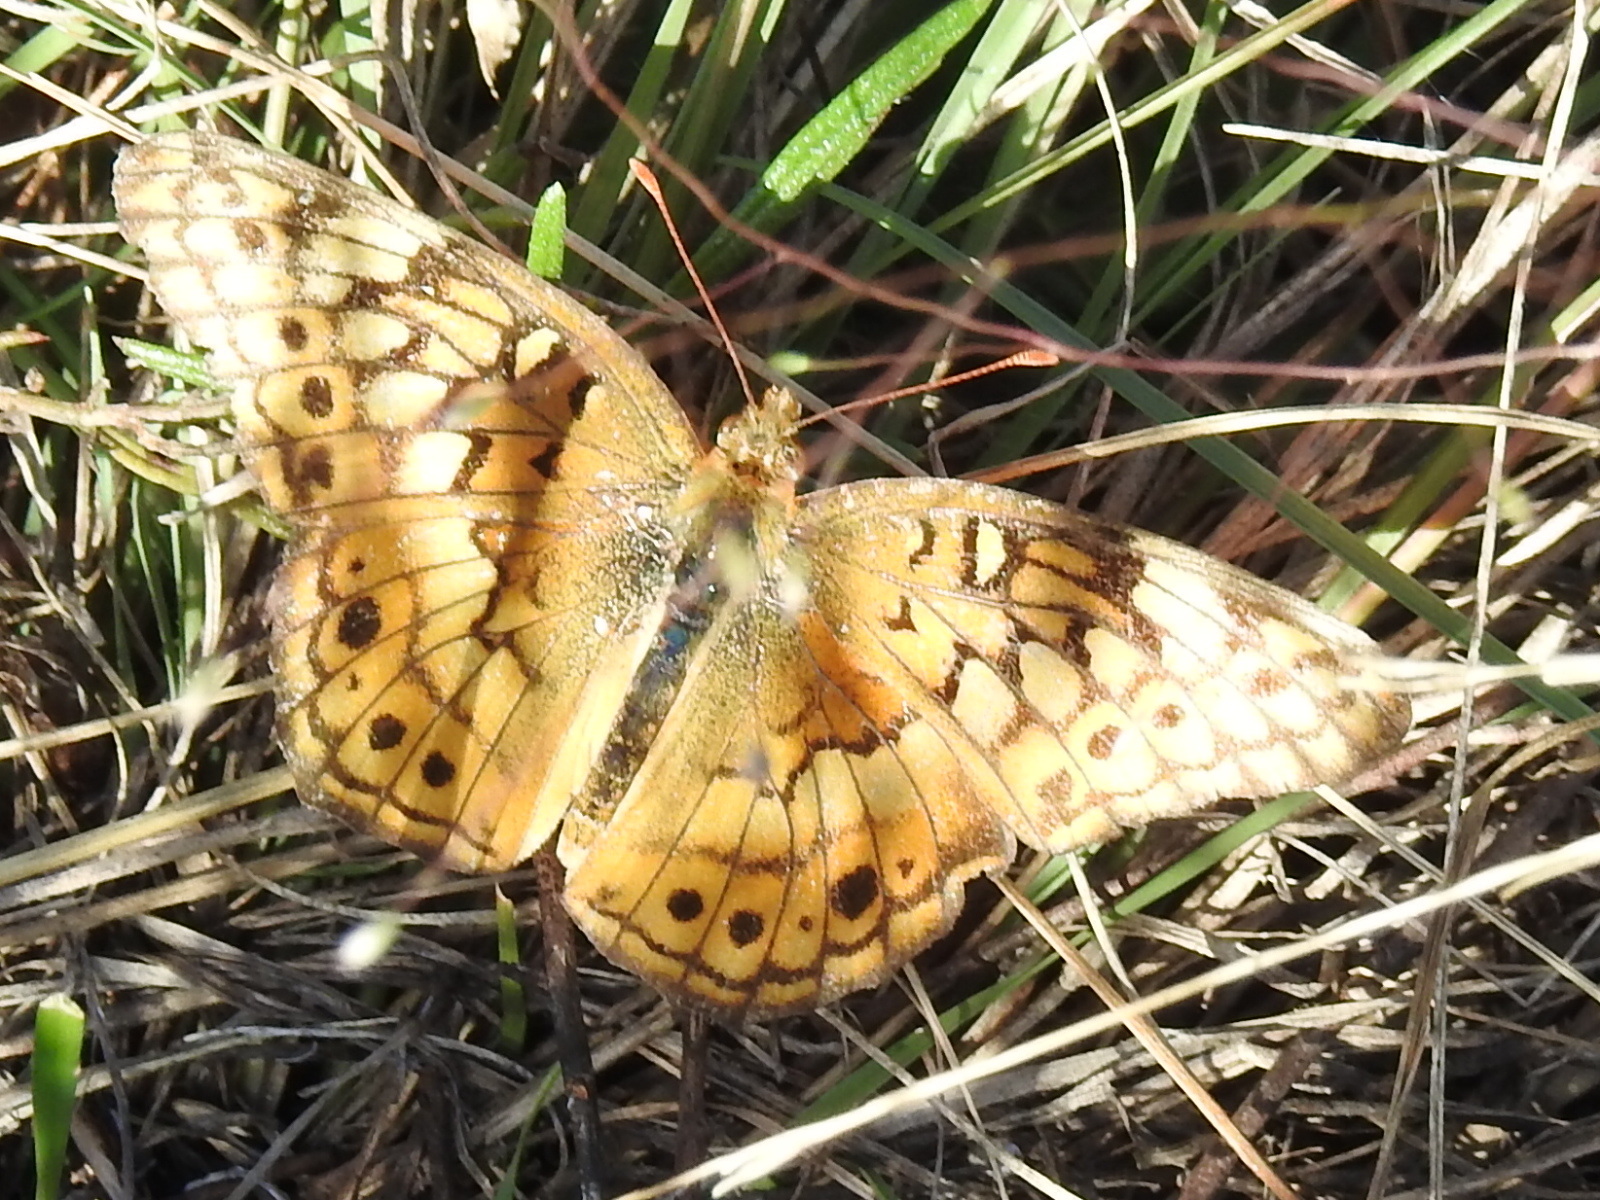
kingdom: Animalia
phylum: Arthropoda
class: Insecta
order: Lepidoptera
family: Nymphalidae
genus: Euptoieta
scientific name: Euptoieta claudia
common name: Variegated fritillary
